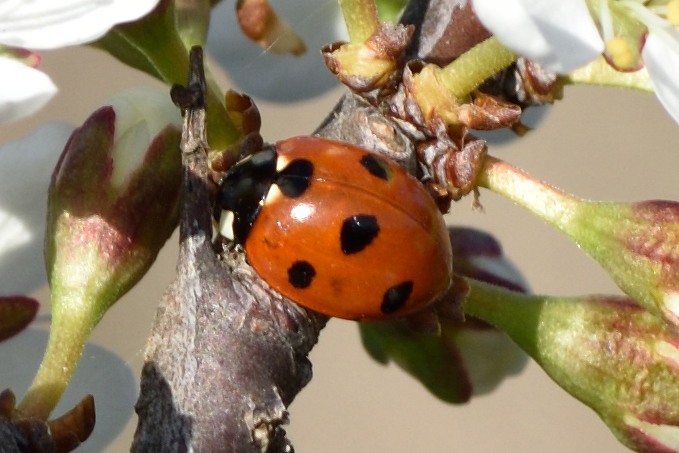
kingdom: Animalia
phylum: Arthropoda
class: Insecta
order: Coleoptera
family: Coccinellidae
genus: Coccinella
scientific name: Coccinella septempunctata
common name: Sevenspotted lady beetle
